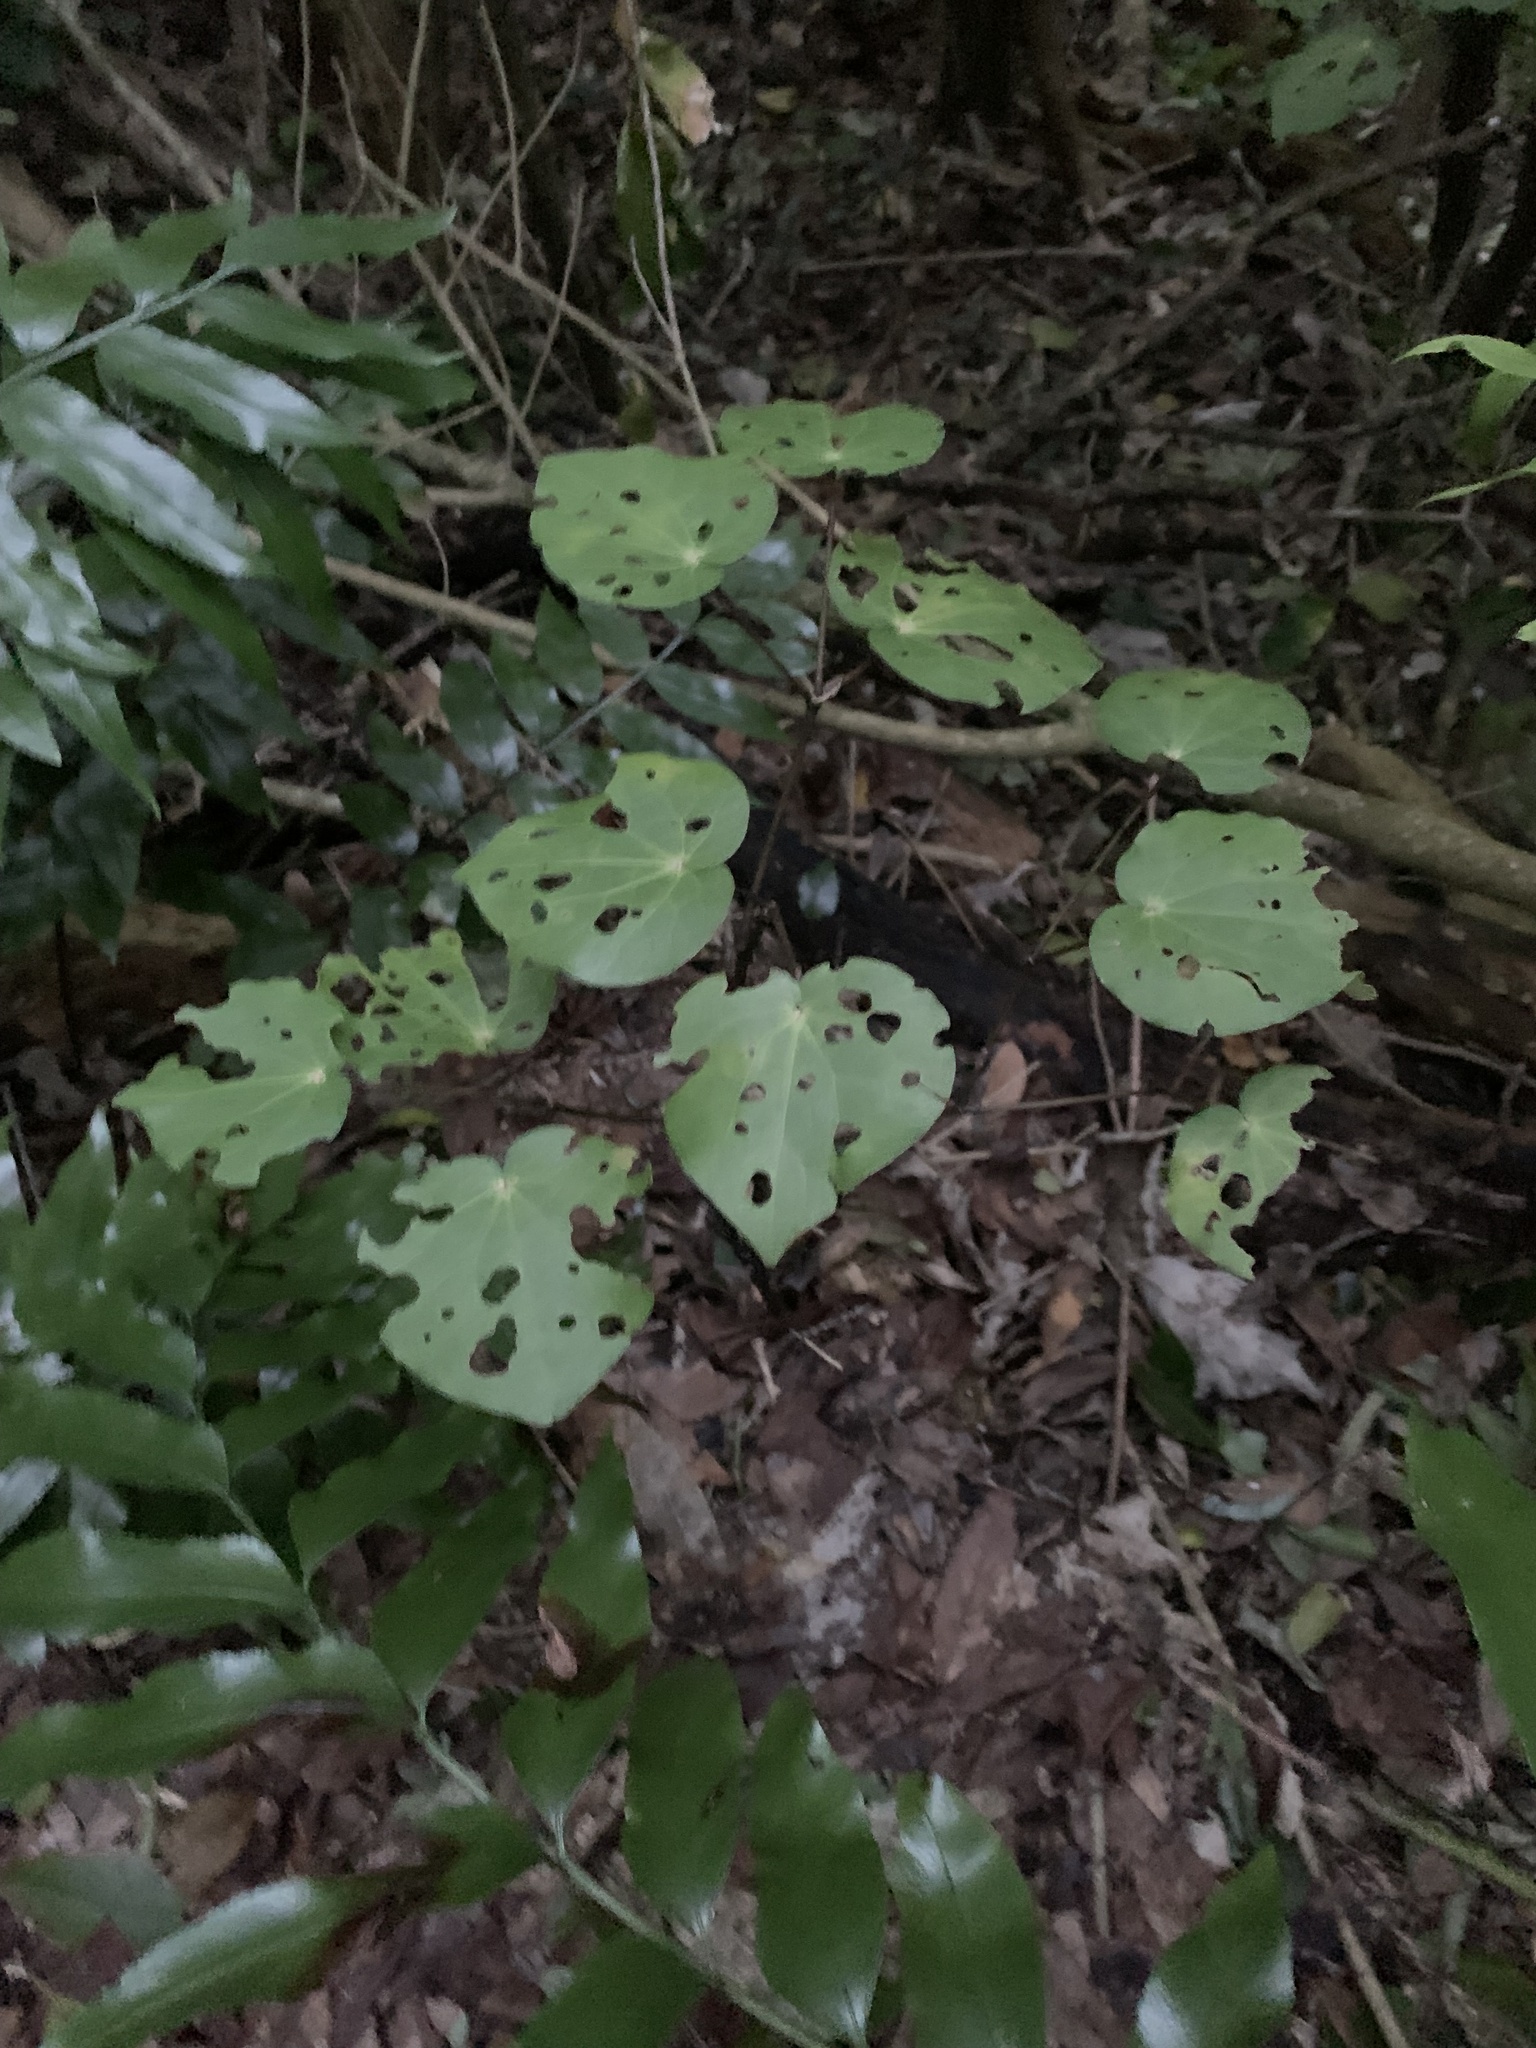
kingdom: Plantae
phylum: Tracheophyta
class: Magnoliopsida
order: Piperales
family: Piperaceae
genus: Macropiper
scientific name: Macropiper excelsum
